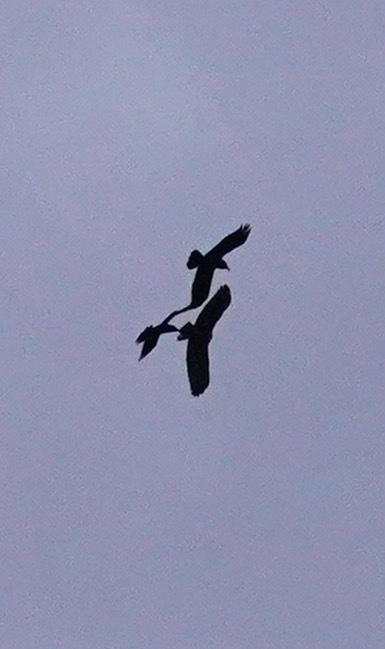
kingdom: Animalia
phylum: Chordata
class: Aves
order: Passeriformes
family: Corvidae
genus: Corvus
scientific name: Corvus corax
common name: Common raven
